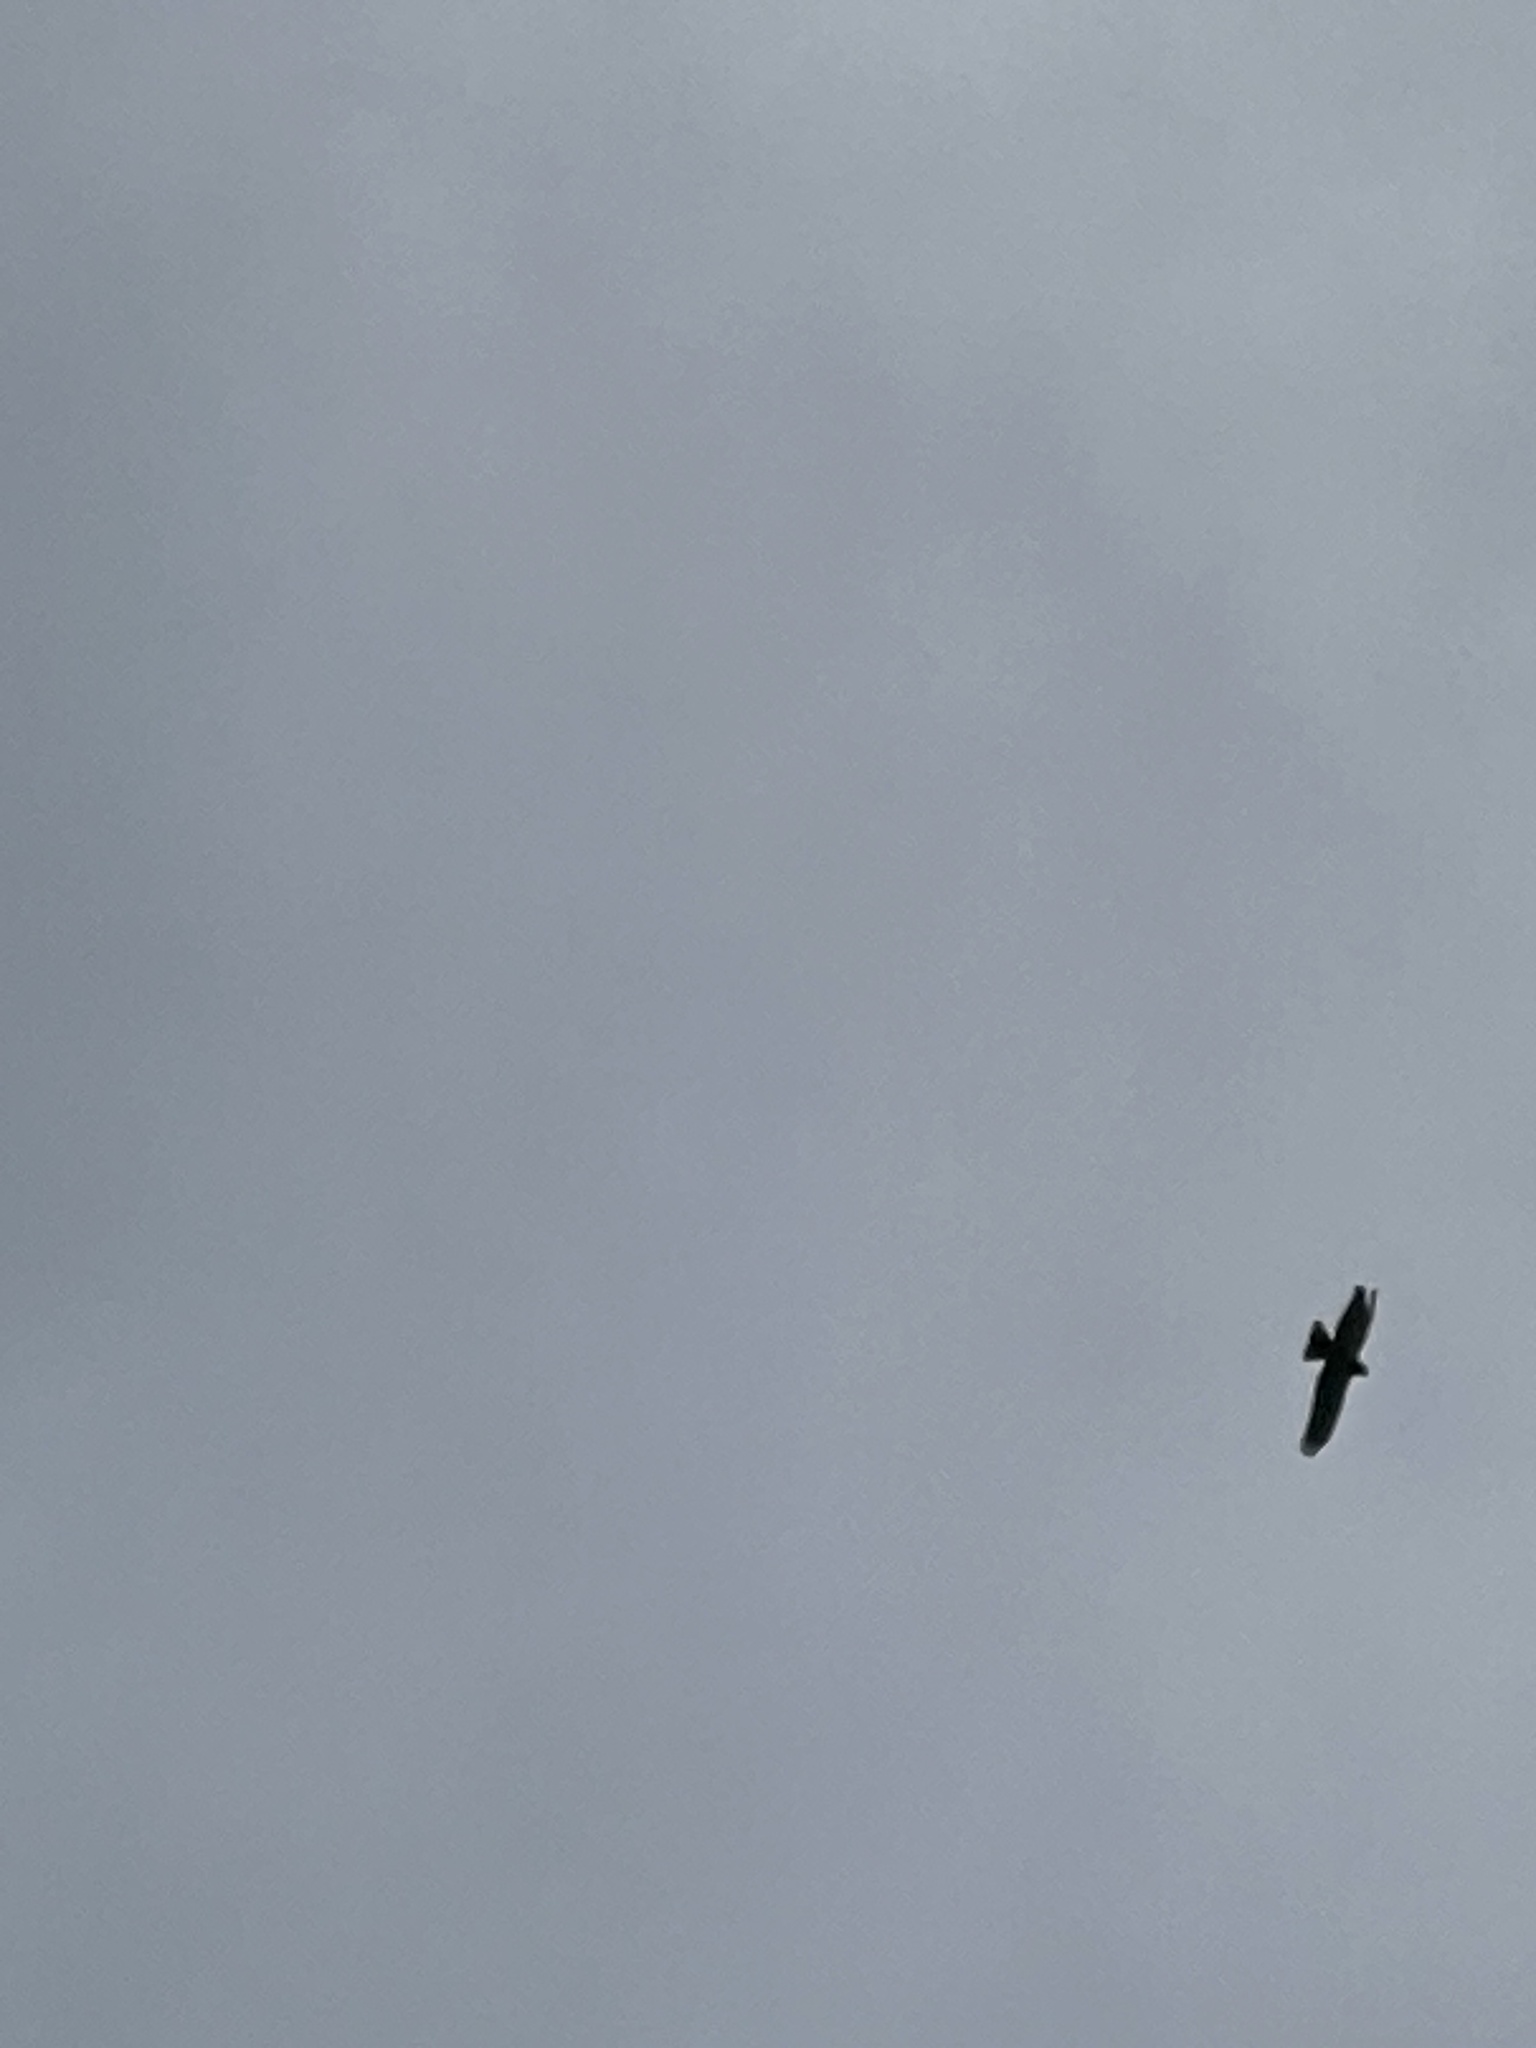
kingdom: Animalia
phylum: Chordata
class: Aves
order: Accipitriformes
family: Accipitridae
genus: Circus
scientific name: Circus approximans
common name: Swamp harrier
